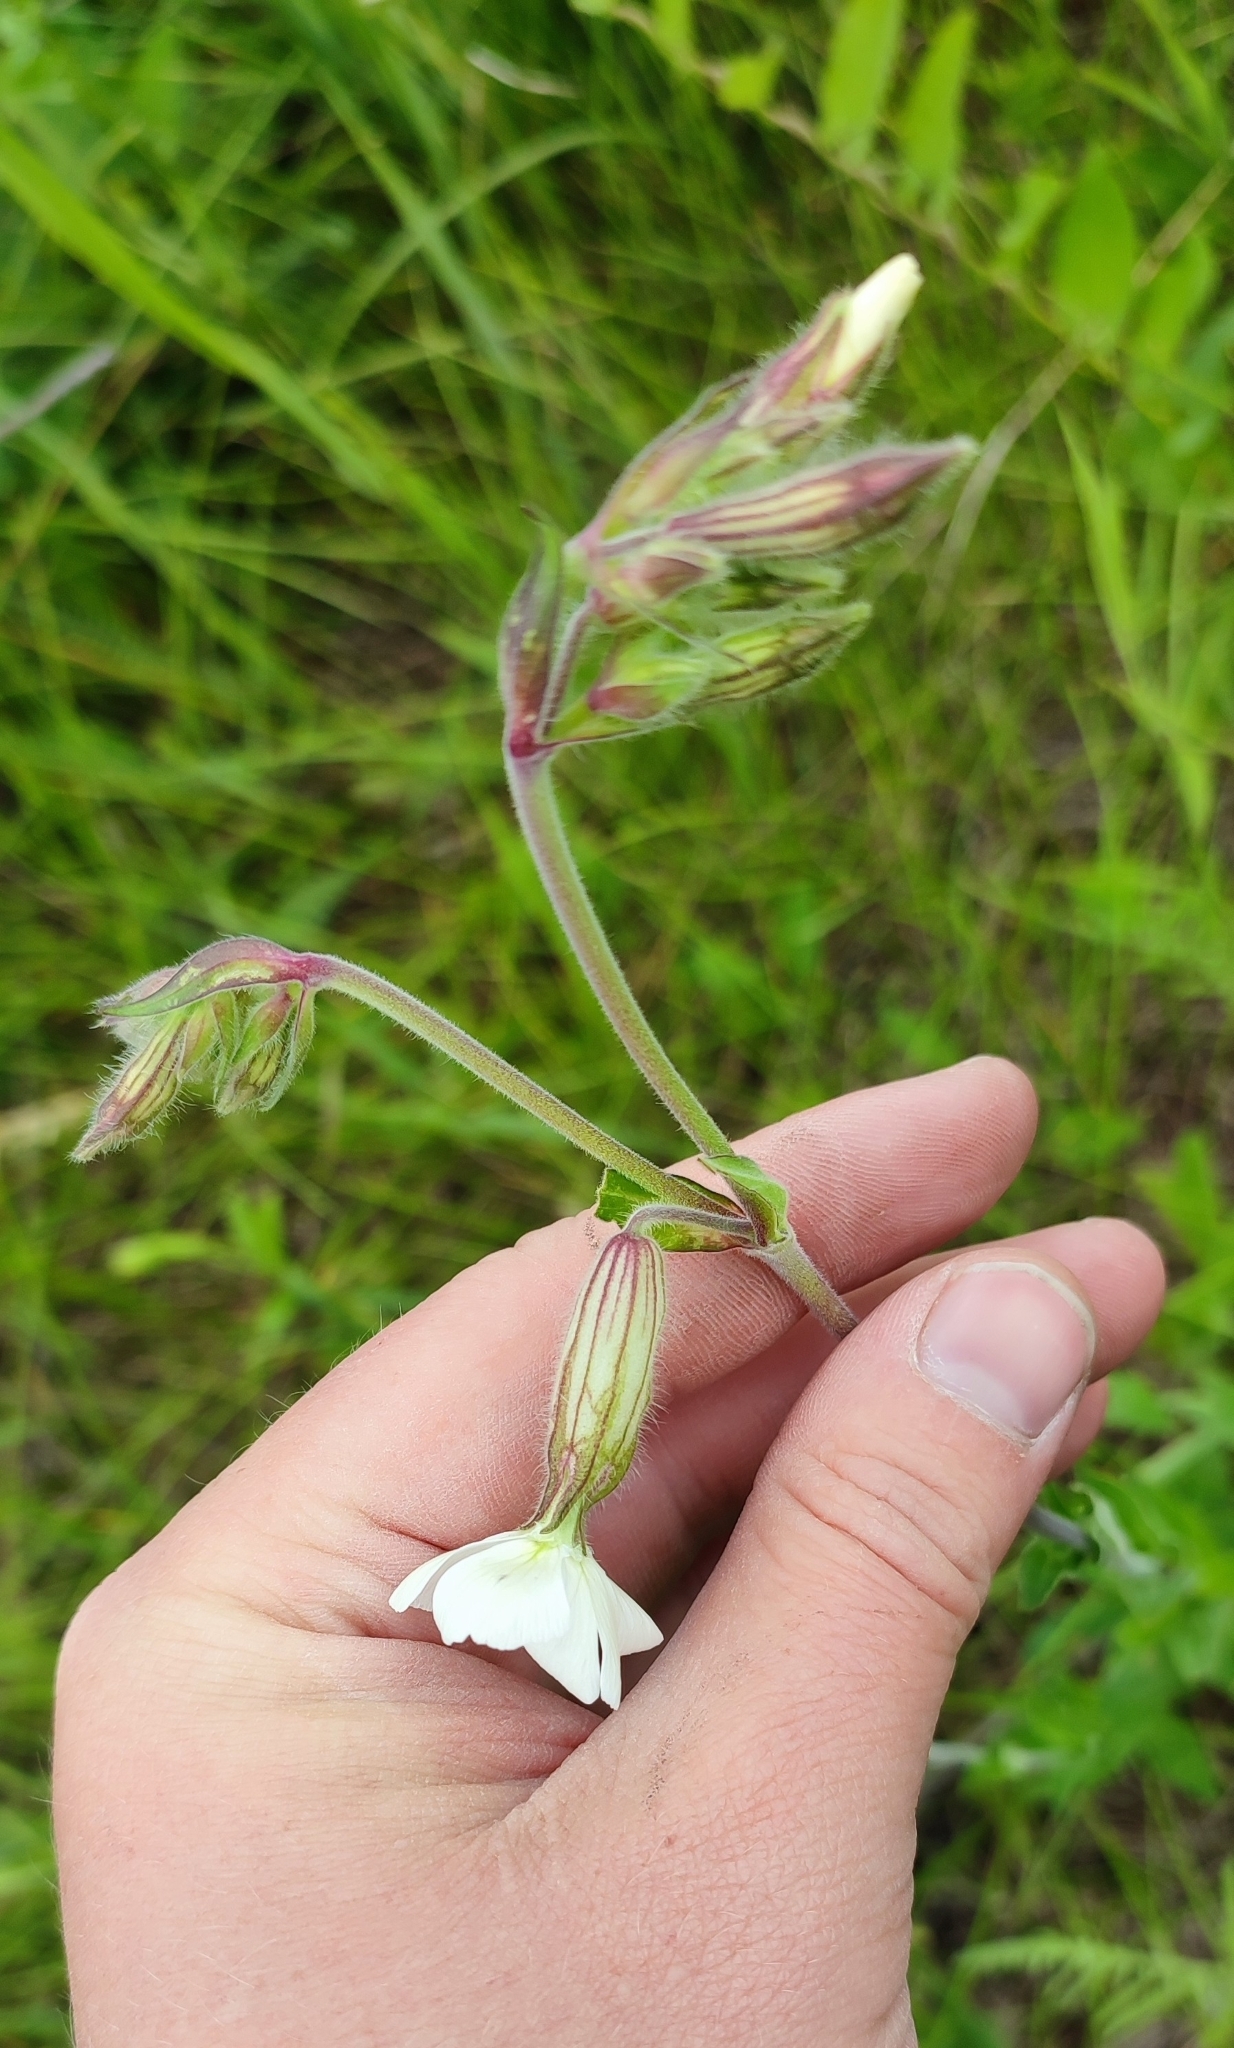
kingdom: Plantae
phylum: Tracheophyta
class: Magnoliopsida
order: Caryophyllales
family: Caryophyllaceae
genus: Silene
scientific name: Silene latifolia
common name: White campion
